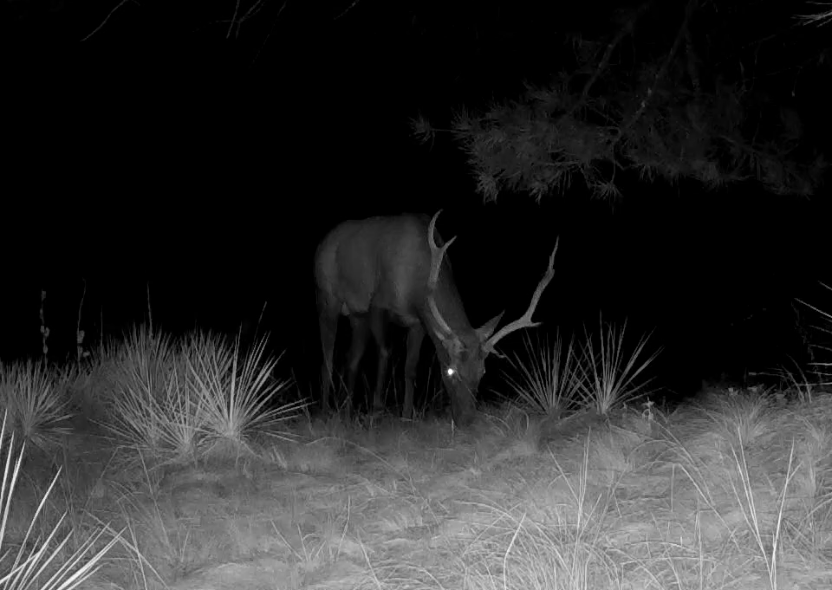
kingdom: Animalia
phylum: Chordata
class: Mammalia
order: Artiodactyla
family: Cervidae
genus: Cervus
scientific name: Cervus elaphus
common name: Red deer
